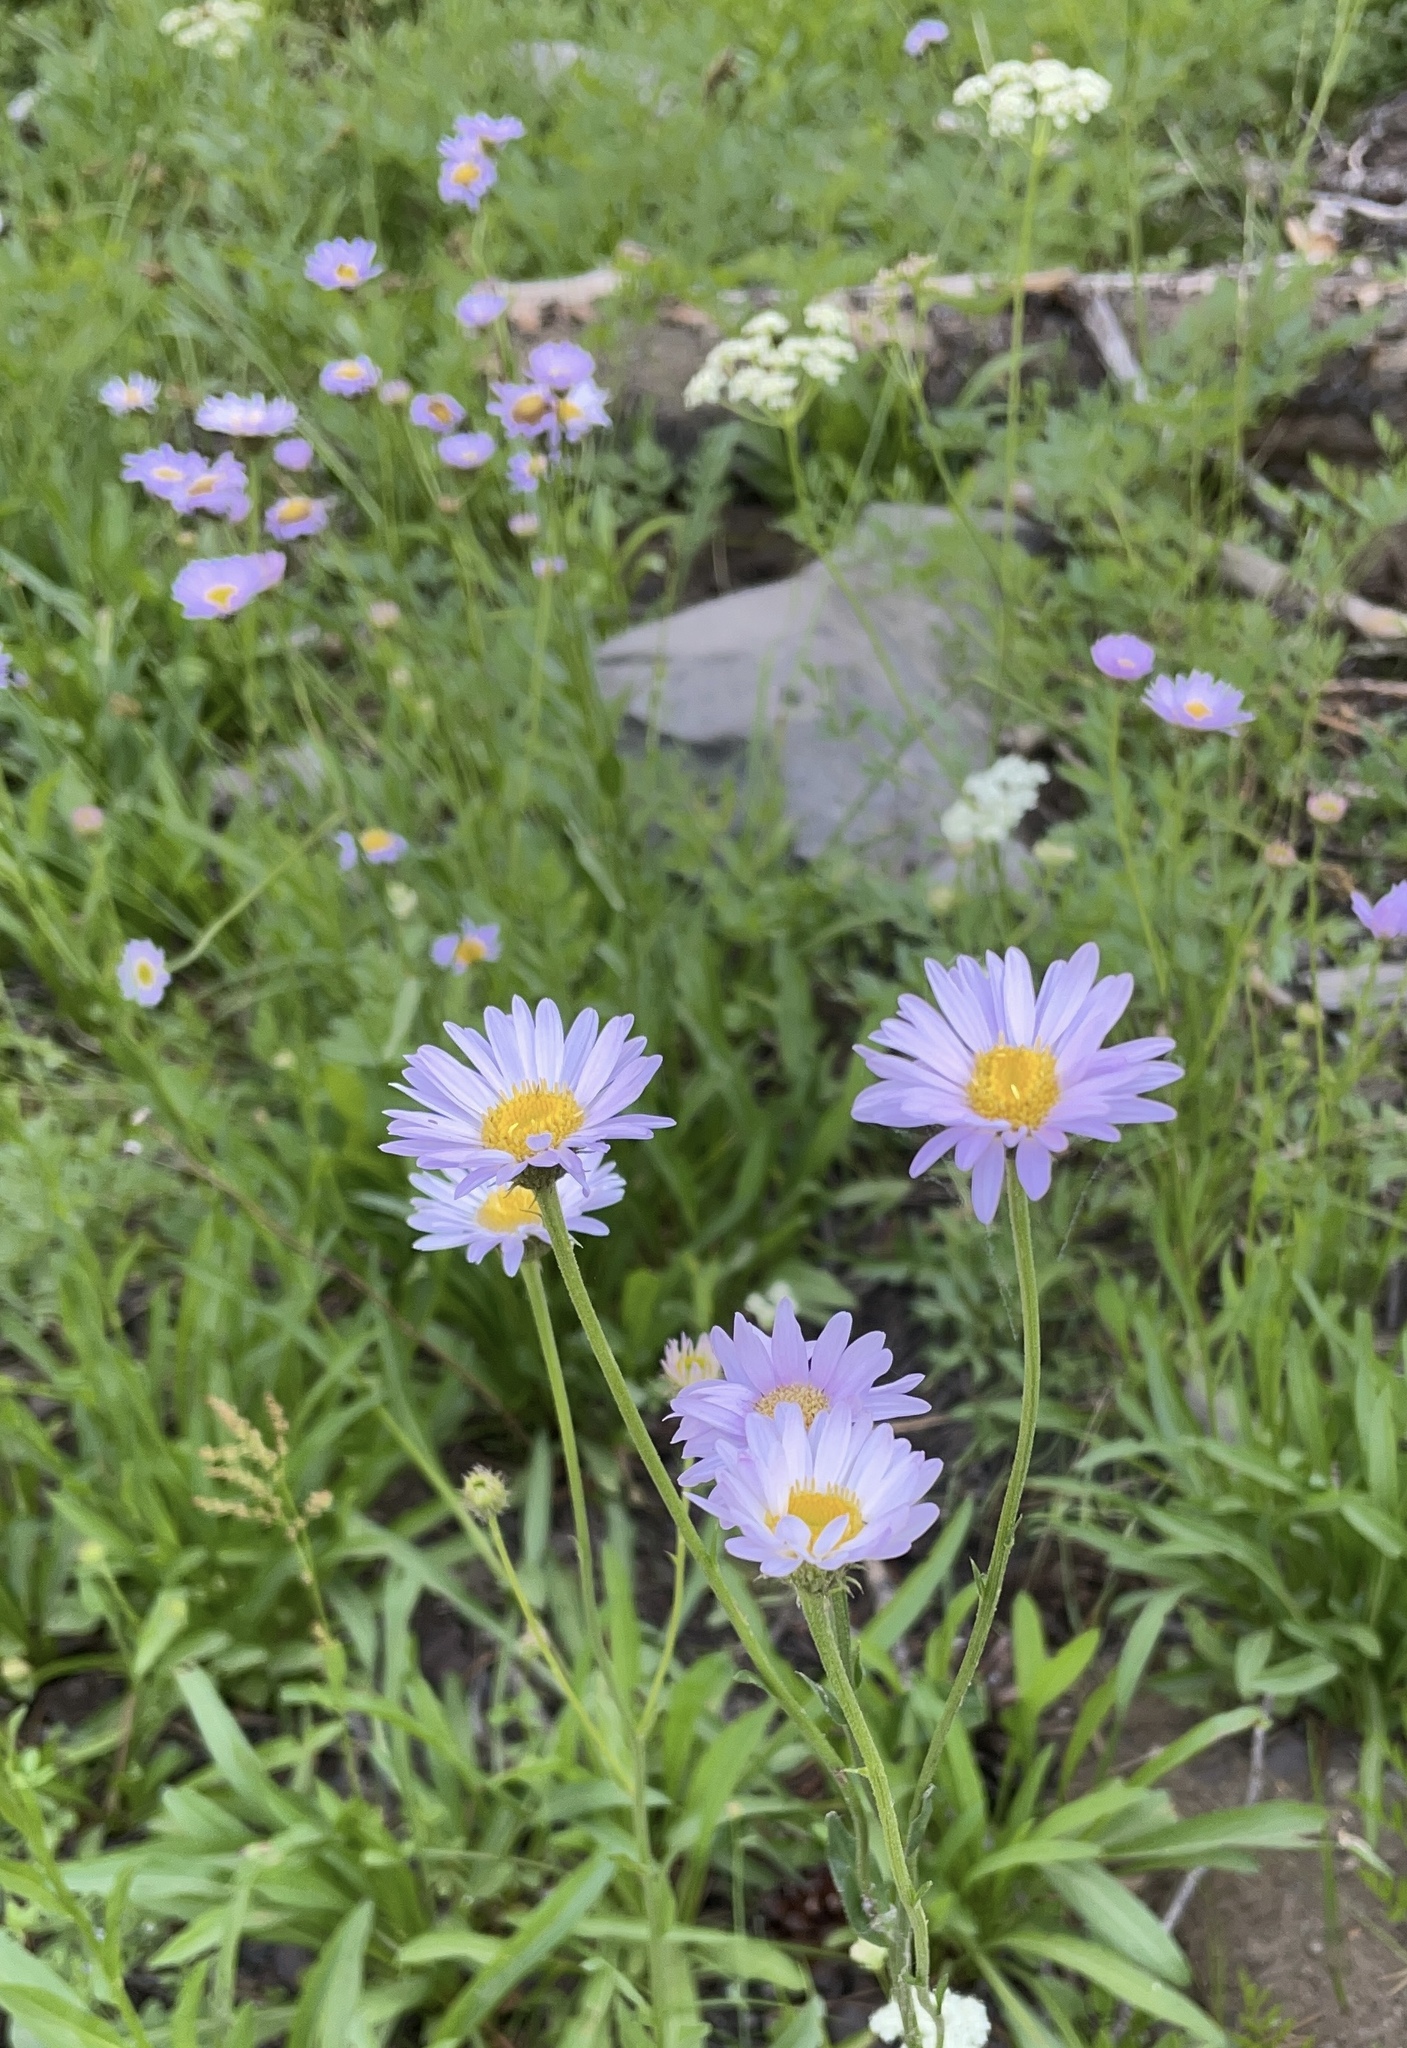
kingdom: Plantae
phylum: Tracheophyta
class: Magnoliopsida
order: Asterales
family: Asteraceae
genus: Erigeron
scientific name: Erigeron glacialis
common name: Subalpine fleabane
